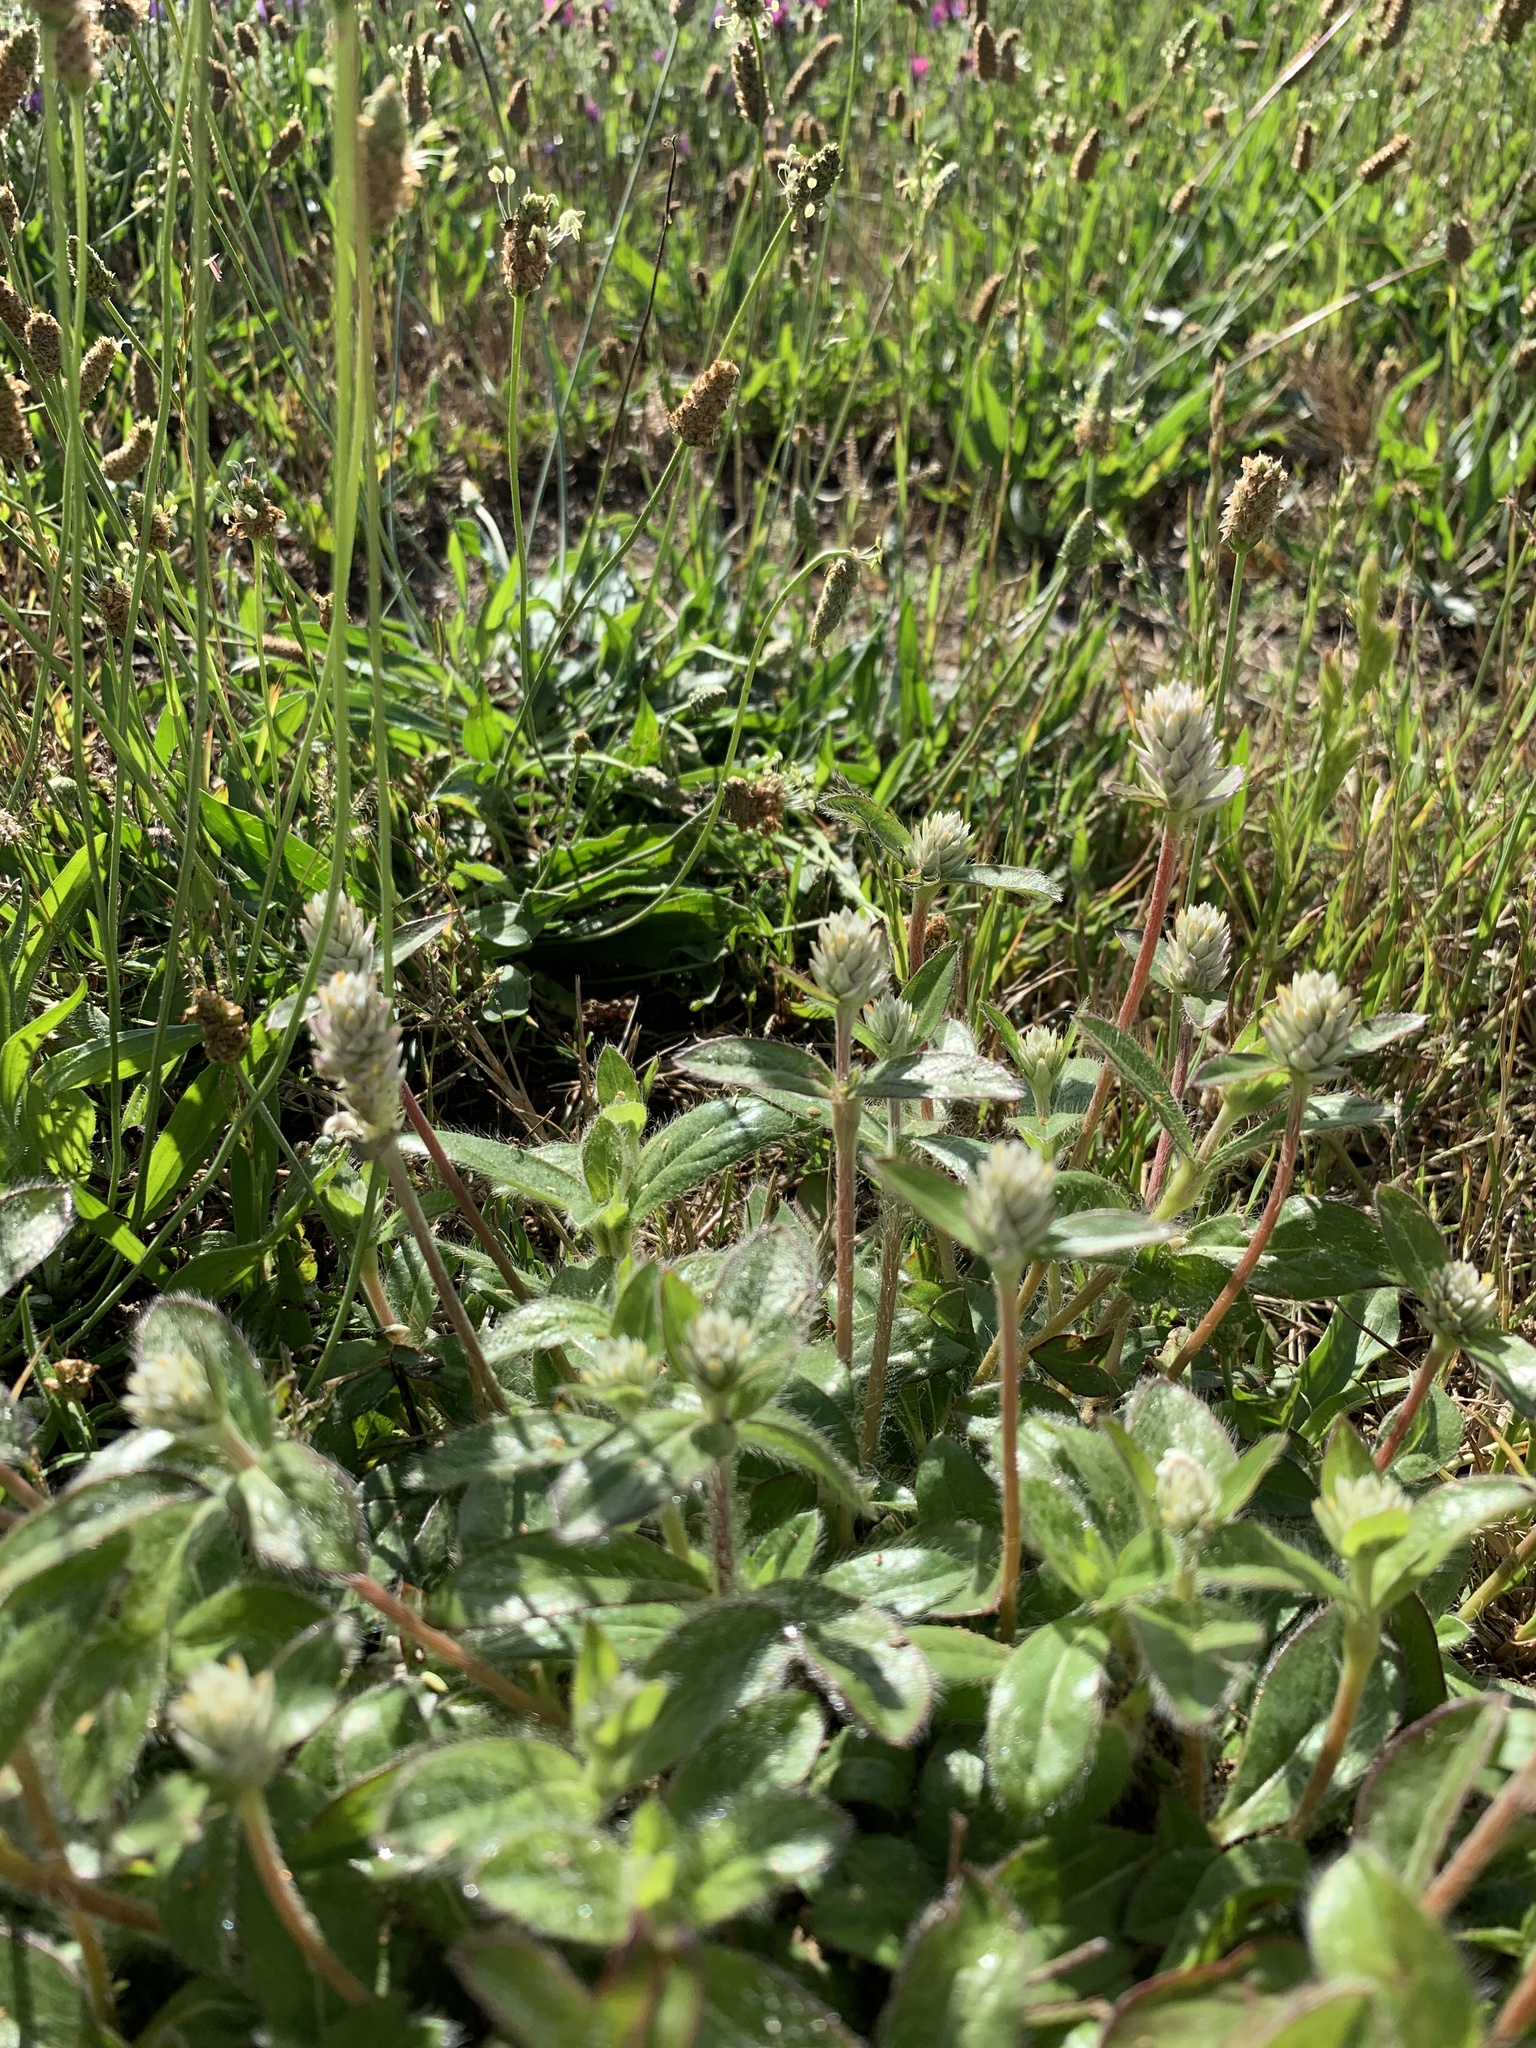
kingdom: Plantae
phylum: Tracheophyta
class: Magnoliopsida
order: Caryophyllales
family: Amaranthaceae
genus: Gomphrena
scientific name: Gomphrena celosioides
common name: Gomphrena-weed
